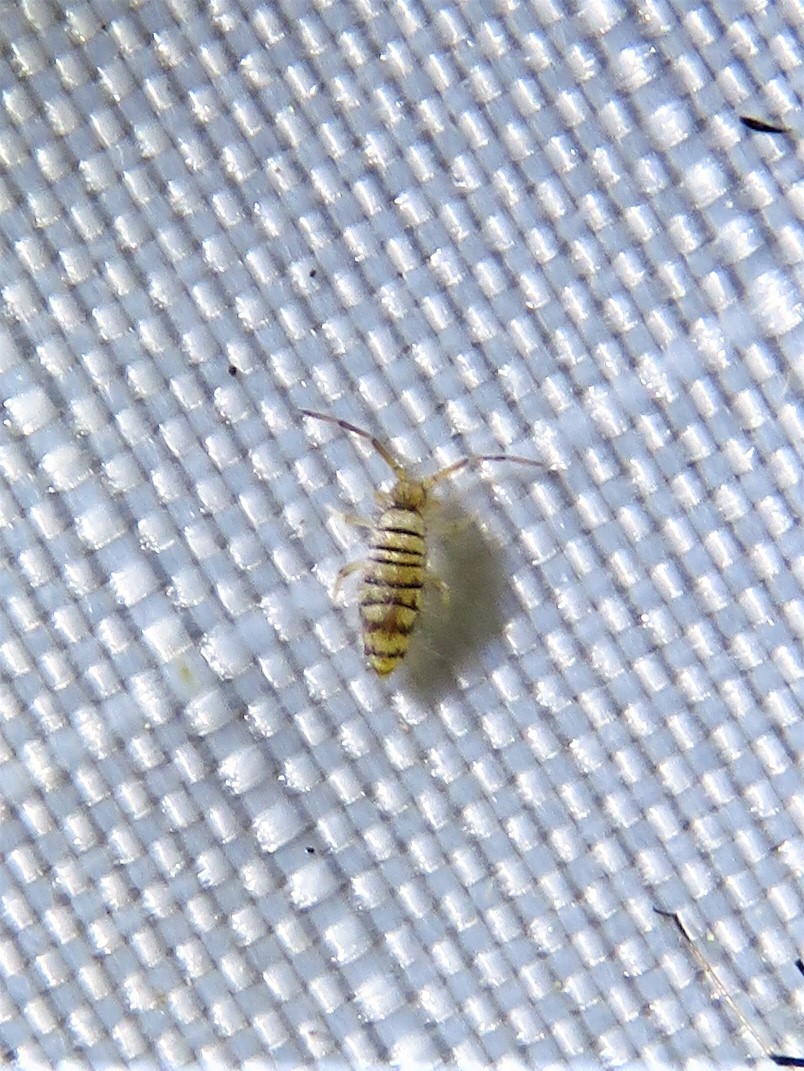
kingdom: Animalia
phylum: Arthropoda
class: Collembola
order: Entomobryomorpha
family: Entomobryidae
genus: Entomobrya
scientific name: Entomobrya atrocincta
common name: Springtail
